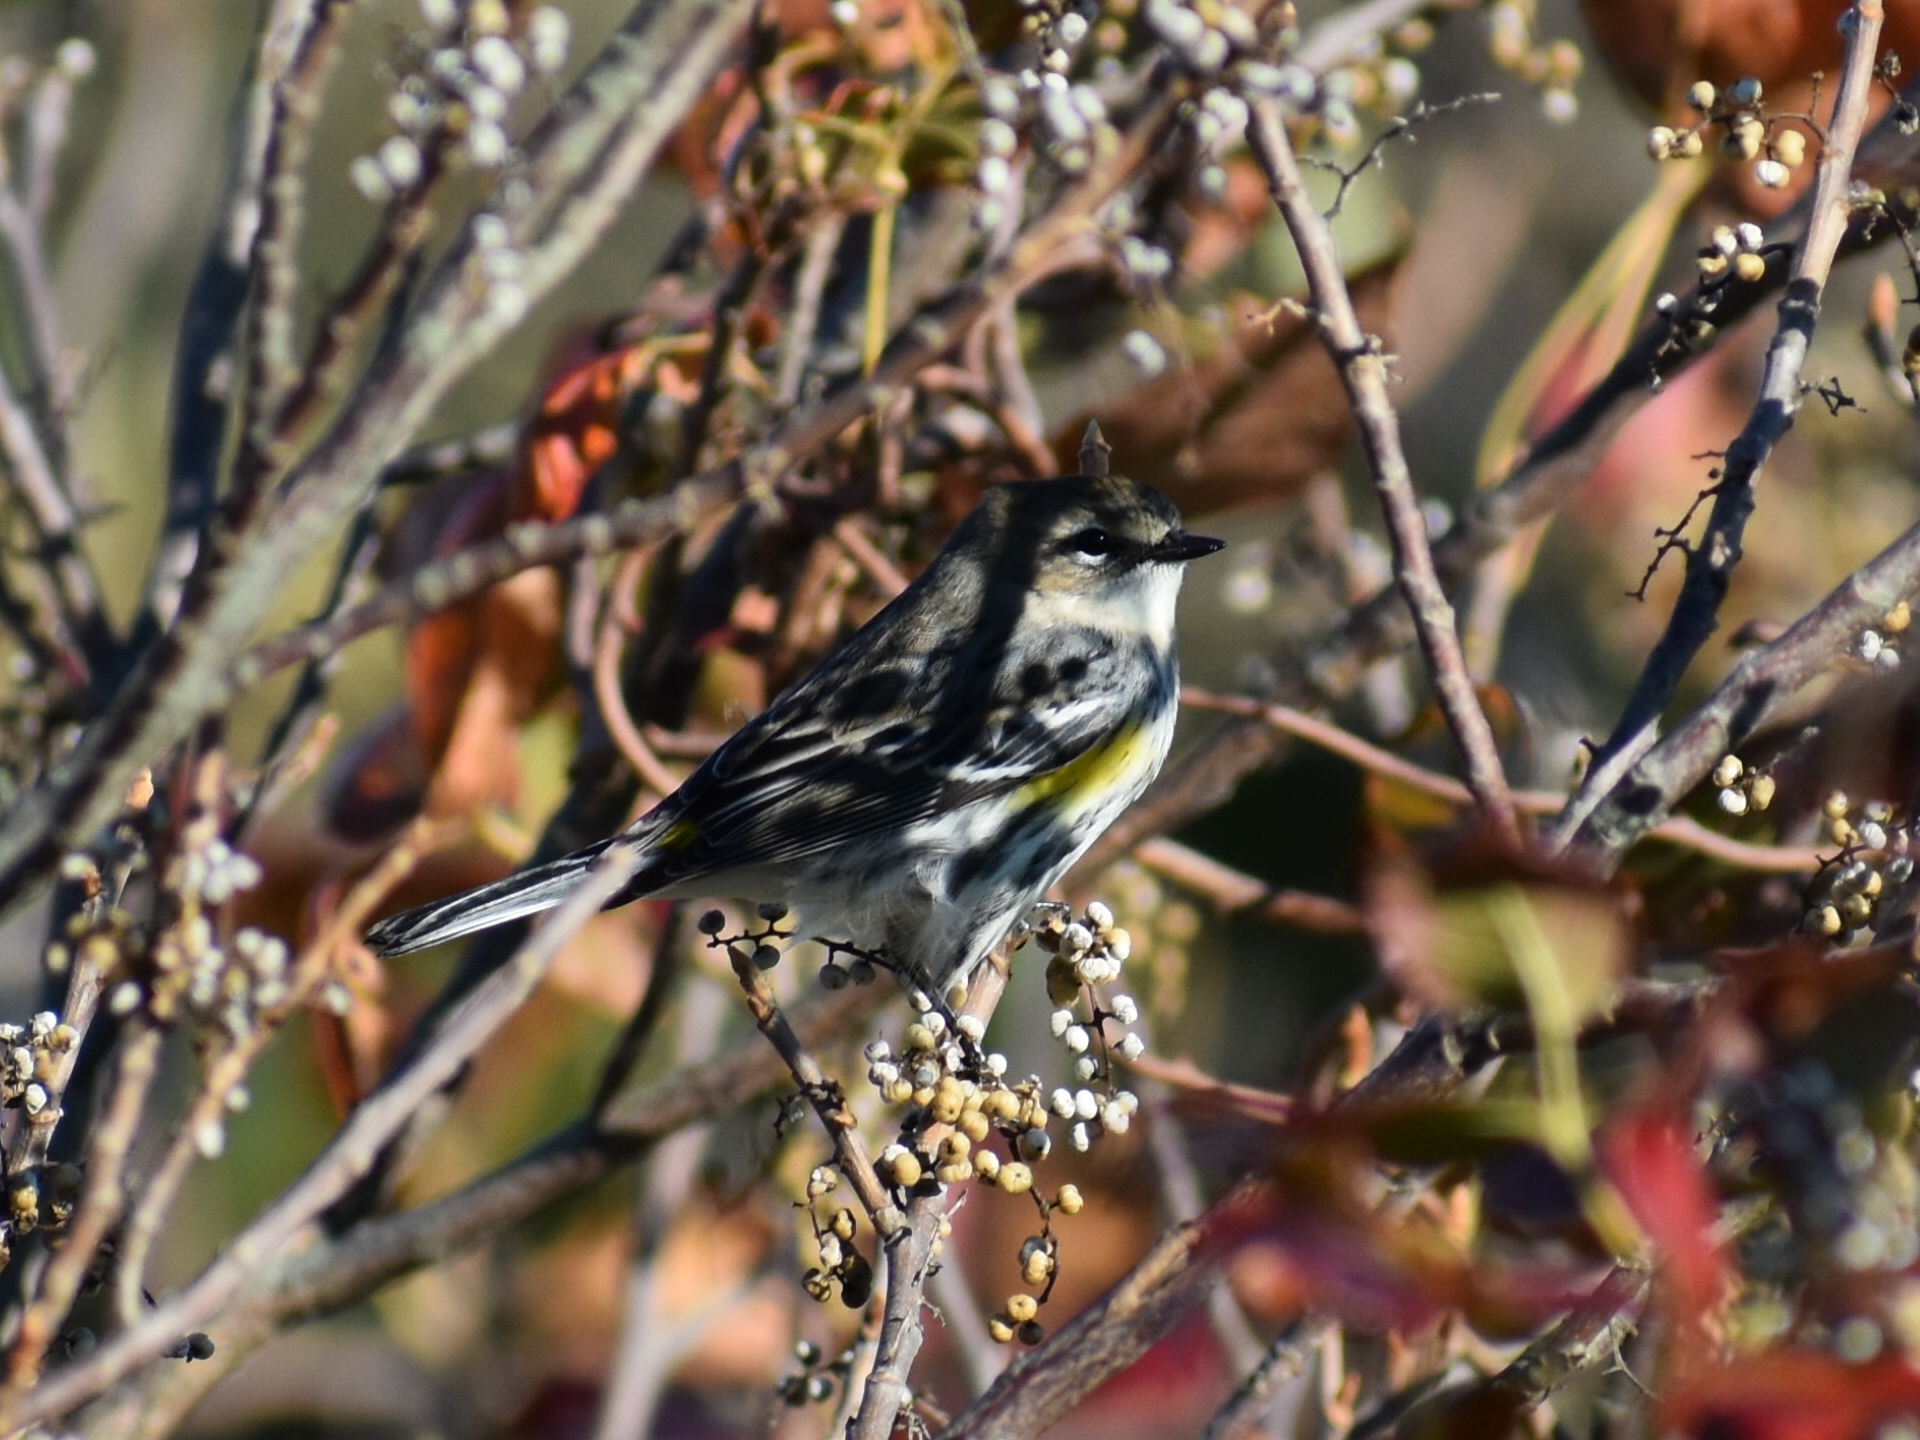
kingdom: Animalia
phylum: Chordata
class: Aves
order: Passeriformes
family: Parulidae
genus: Setophaga
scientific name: Setophaga coronata
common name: Myrtle warbler
